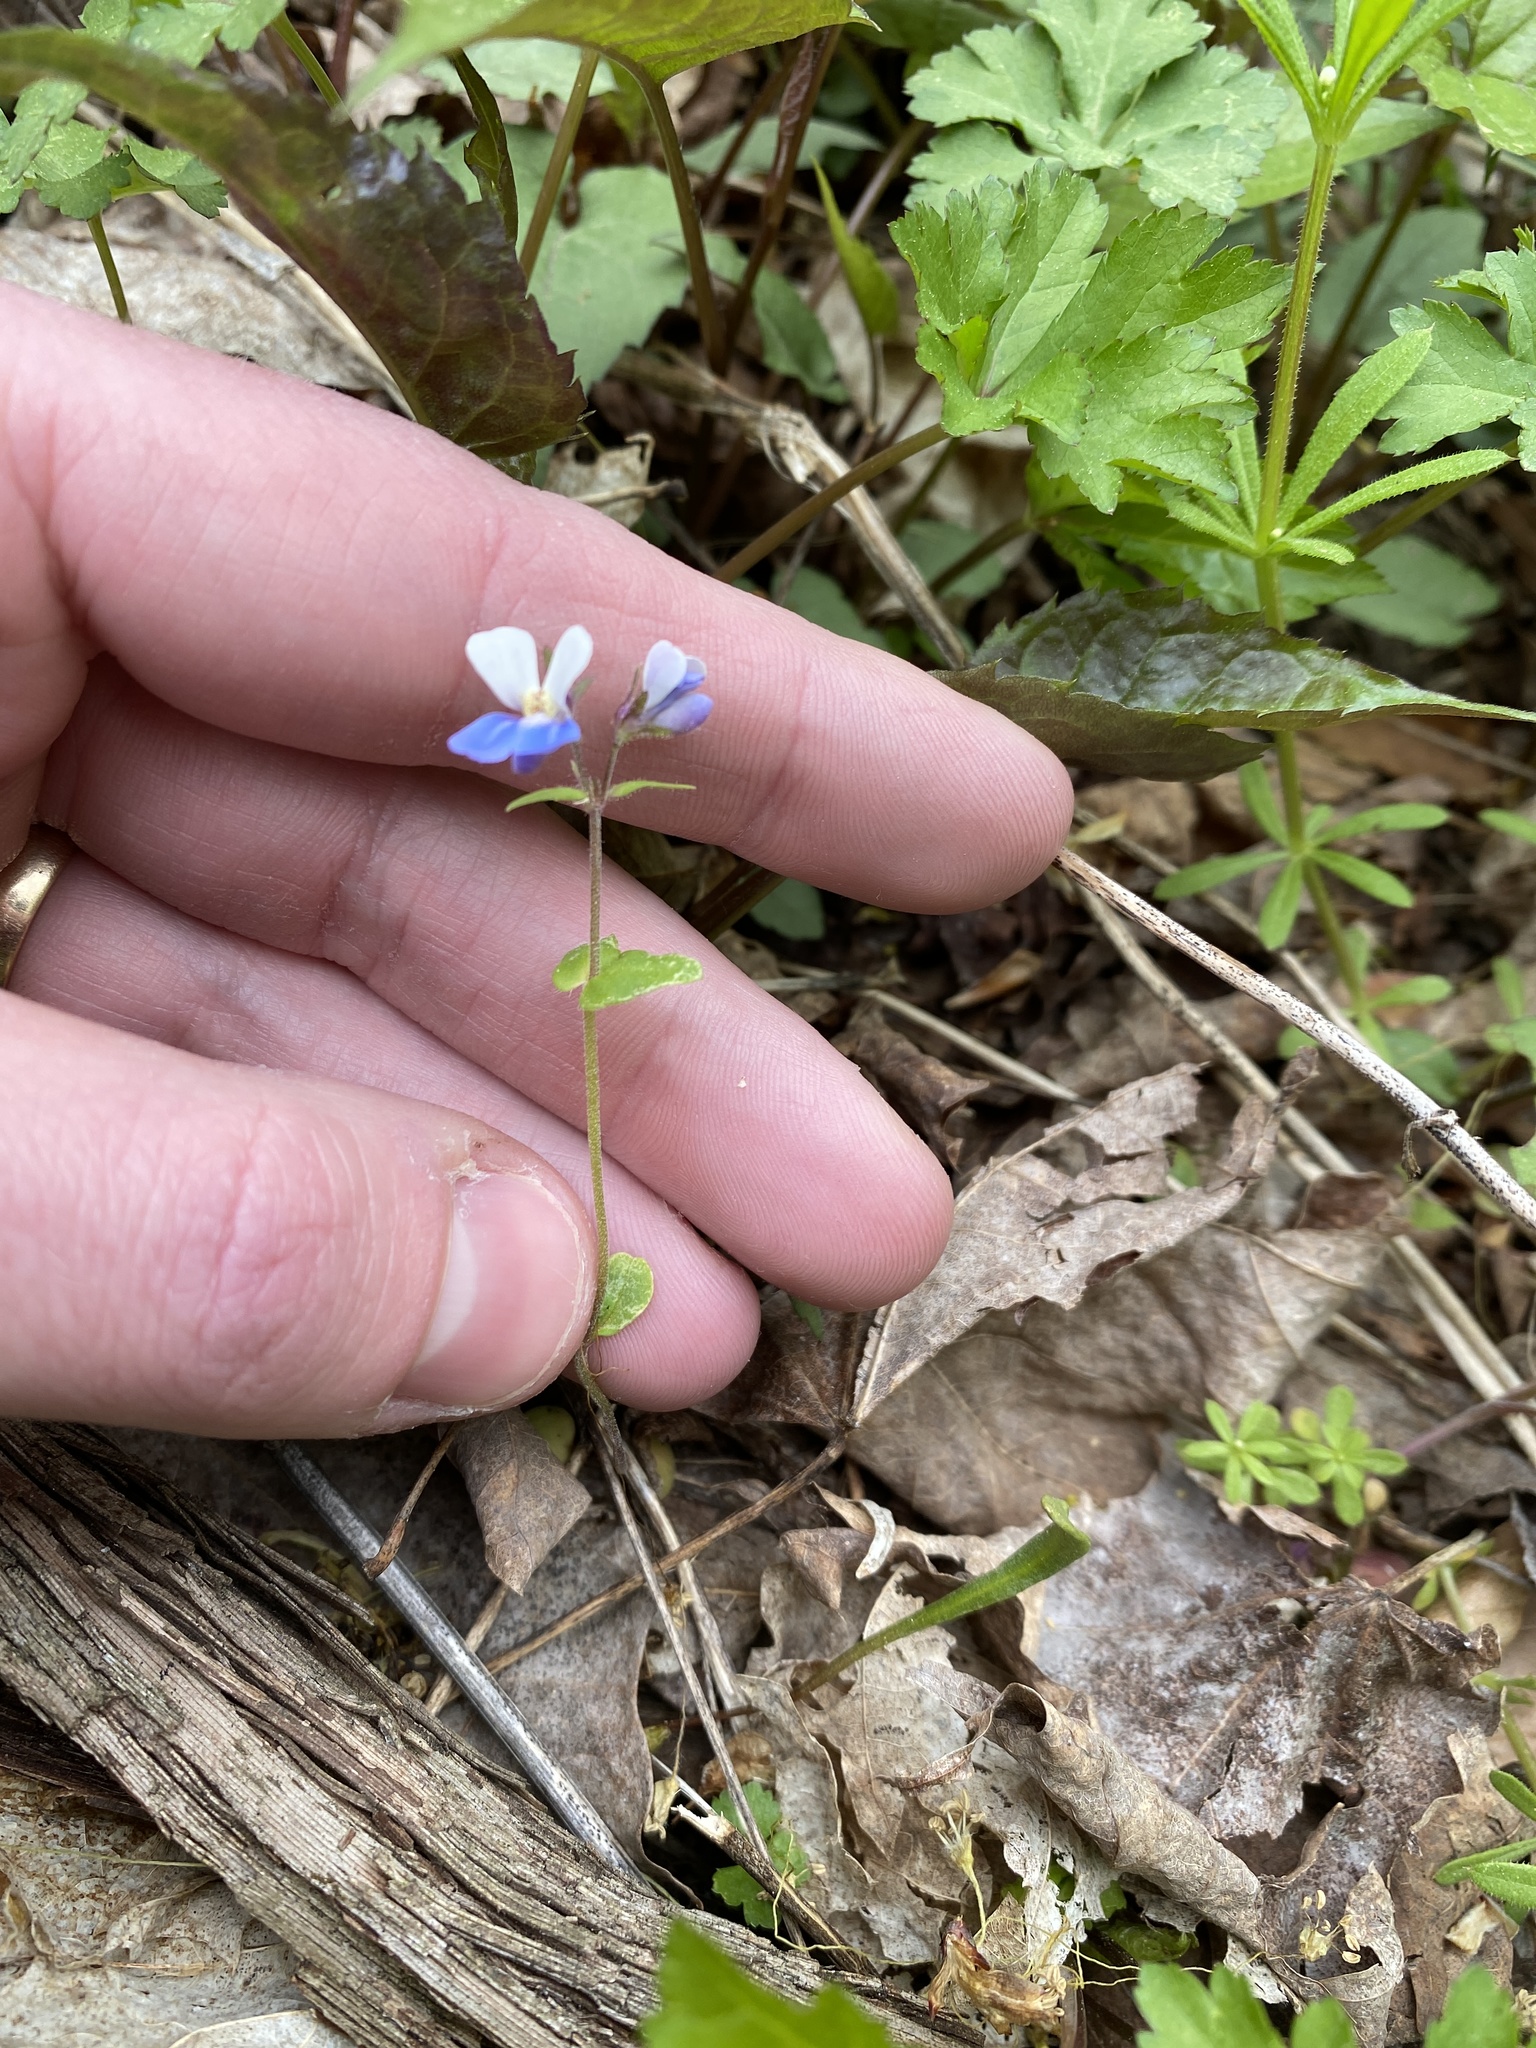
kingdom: Plantae
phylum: Tracheophyta
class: Magnoliopsida
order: Lamiales
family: Plantaginaceae
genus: Collinsia
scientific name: Collinsia verna
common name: Broad-leaved collinsia
